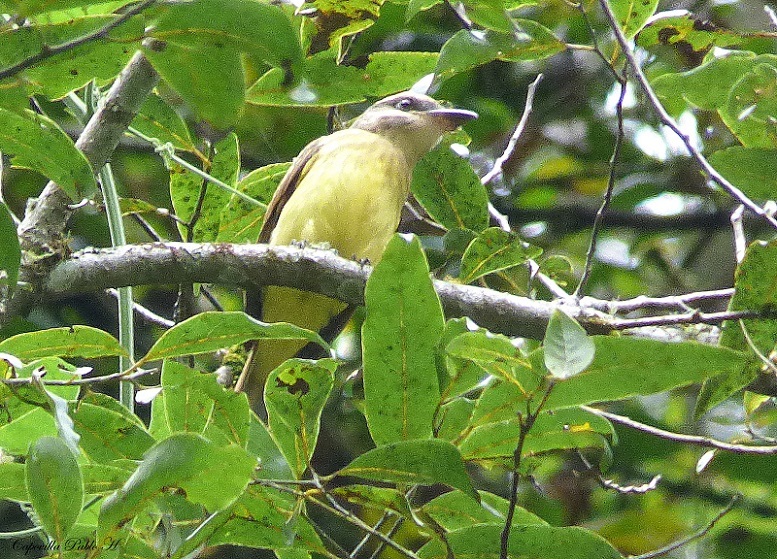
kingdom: Animalia
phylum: Chordata
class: Aves
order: Passeriformes
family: Tyrannidae
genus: Myiodynastes
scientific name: Myiodynastes chrysocephalus
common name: Golden-crowned flycatcher
